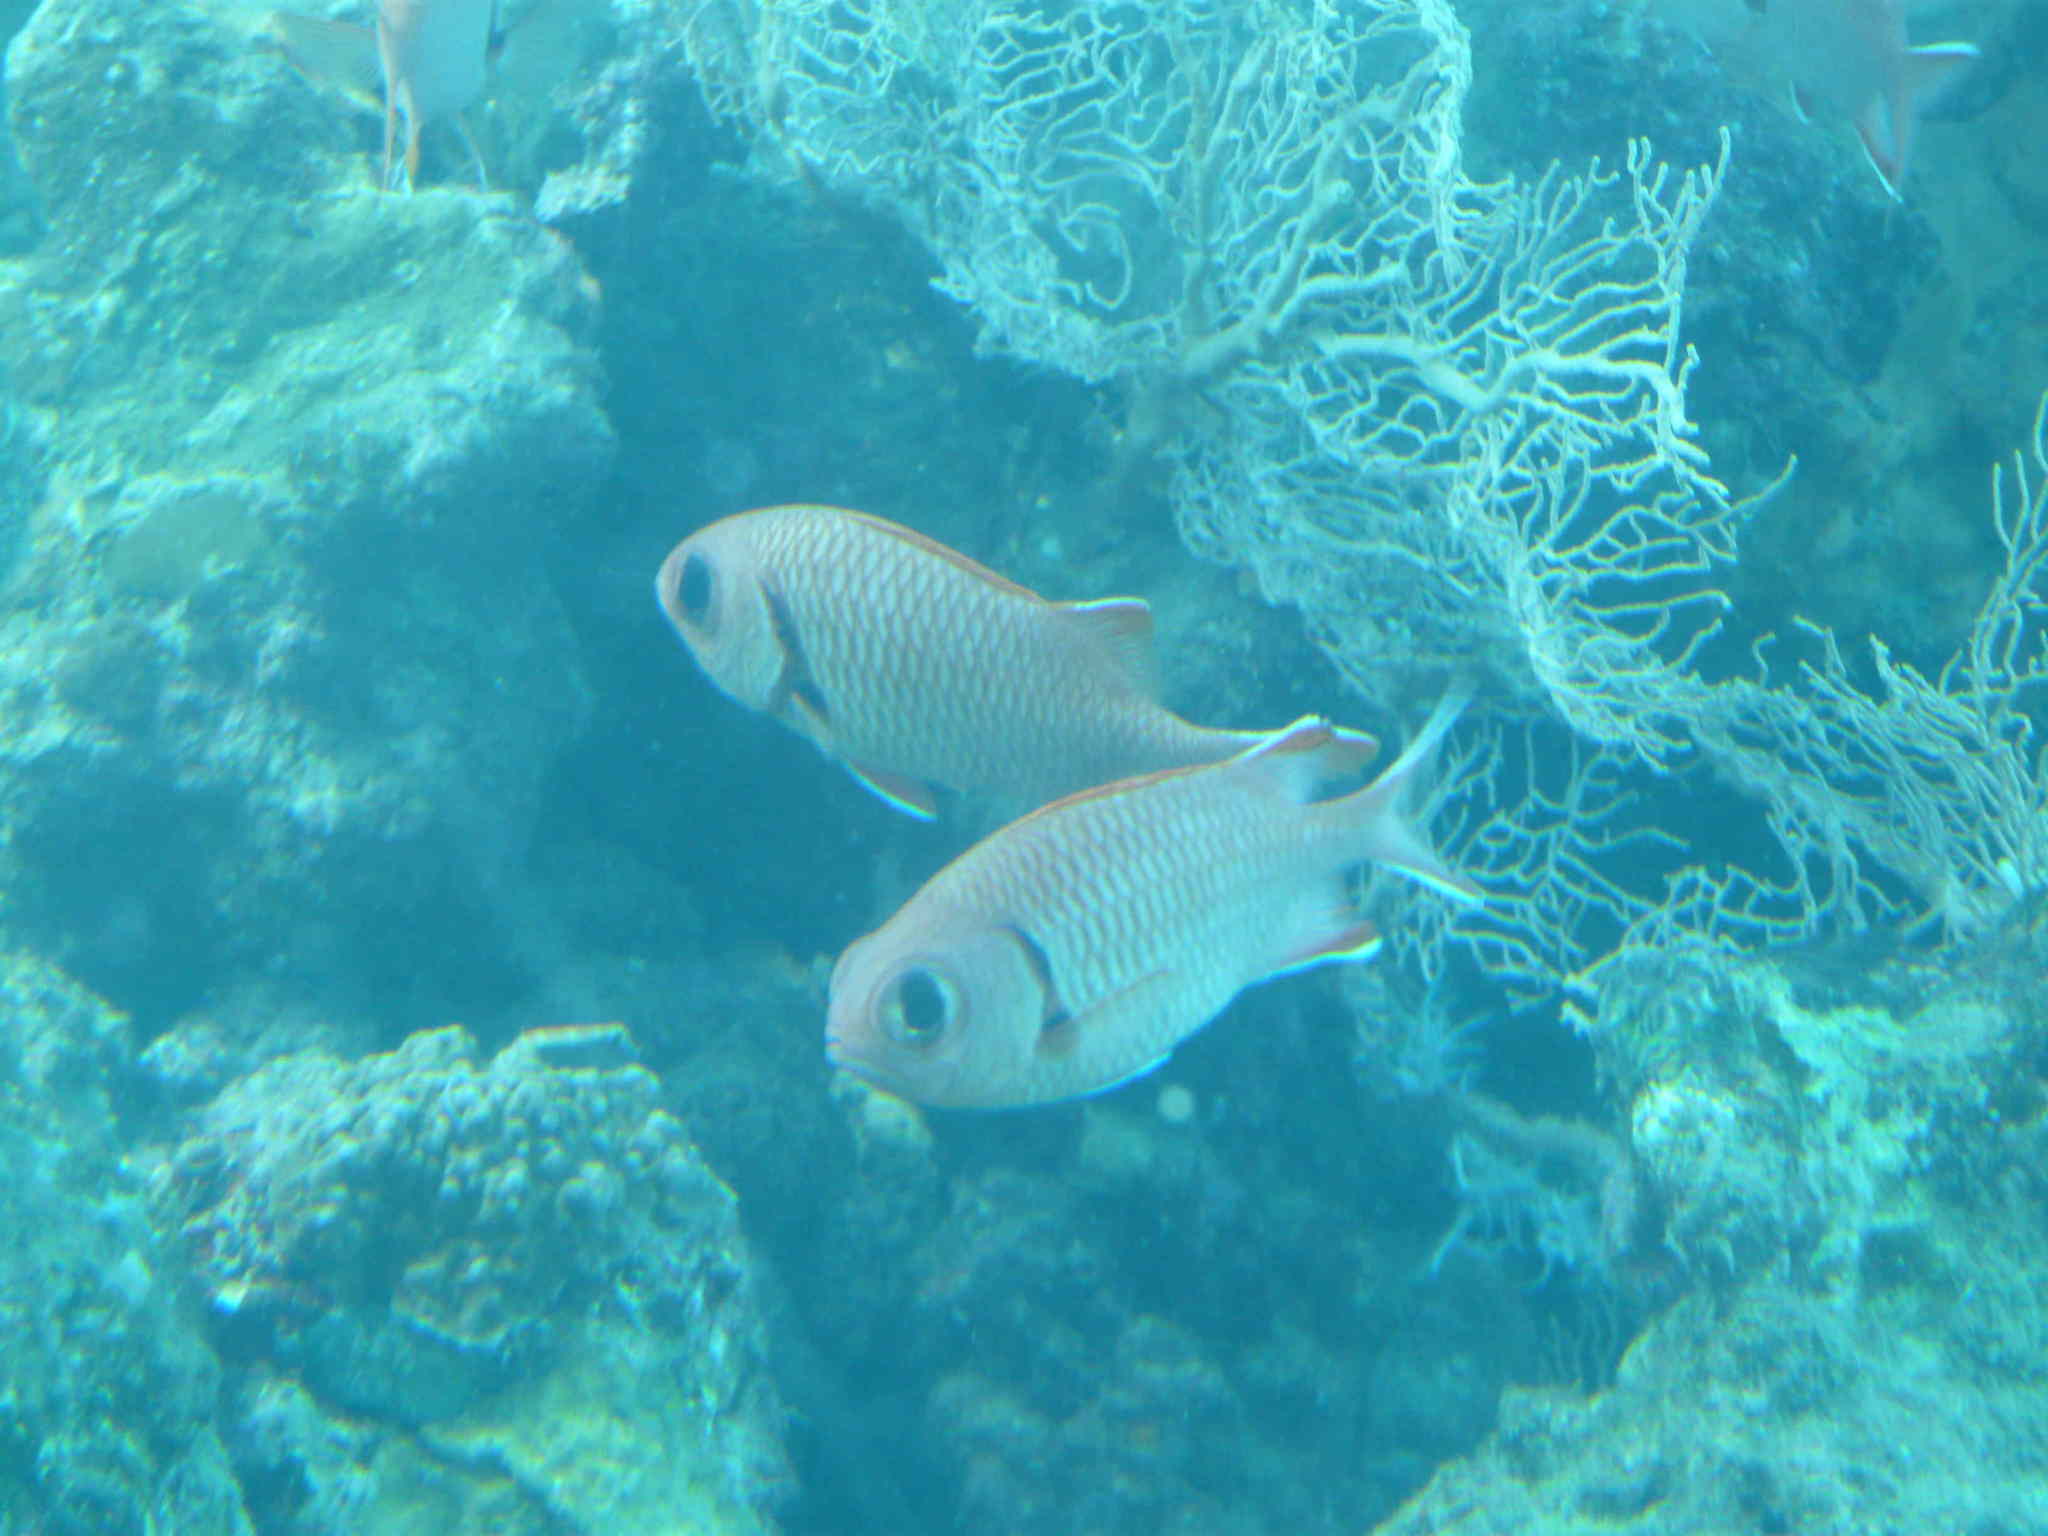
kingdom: Animalia
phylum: Chordata
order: Beryciformes
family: Holocentridae
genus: Myripristis
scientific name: Myripristis murdjan
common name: Big-eye soldierfish
